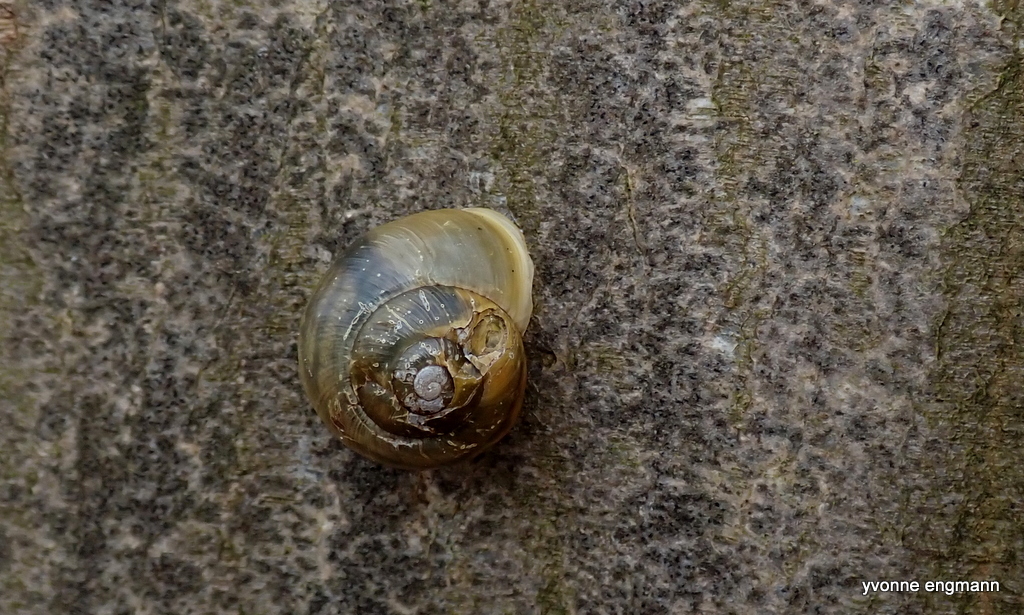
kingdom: Animalia
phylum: Mollusca
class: Gastropoda
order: Stylommatophora
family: Helicidae
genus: Cepaea
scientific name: Cepaea hortensis
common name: White-lip gardensnail
